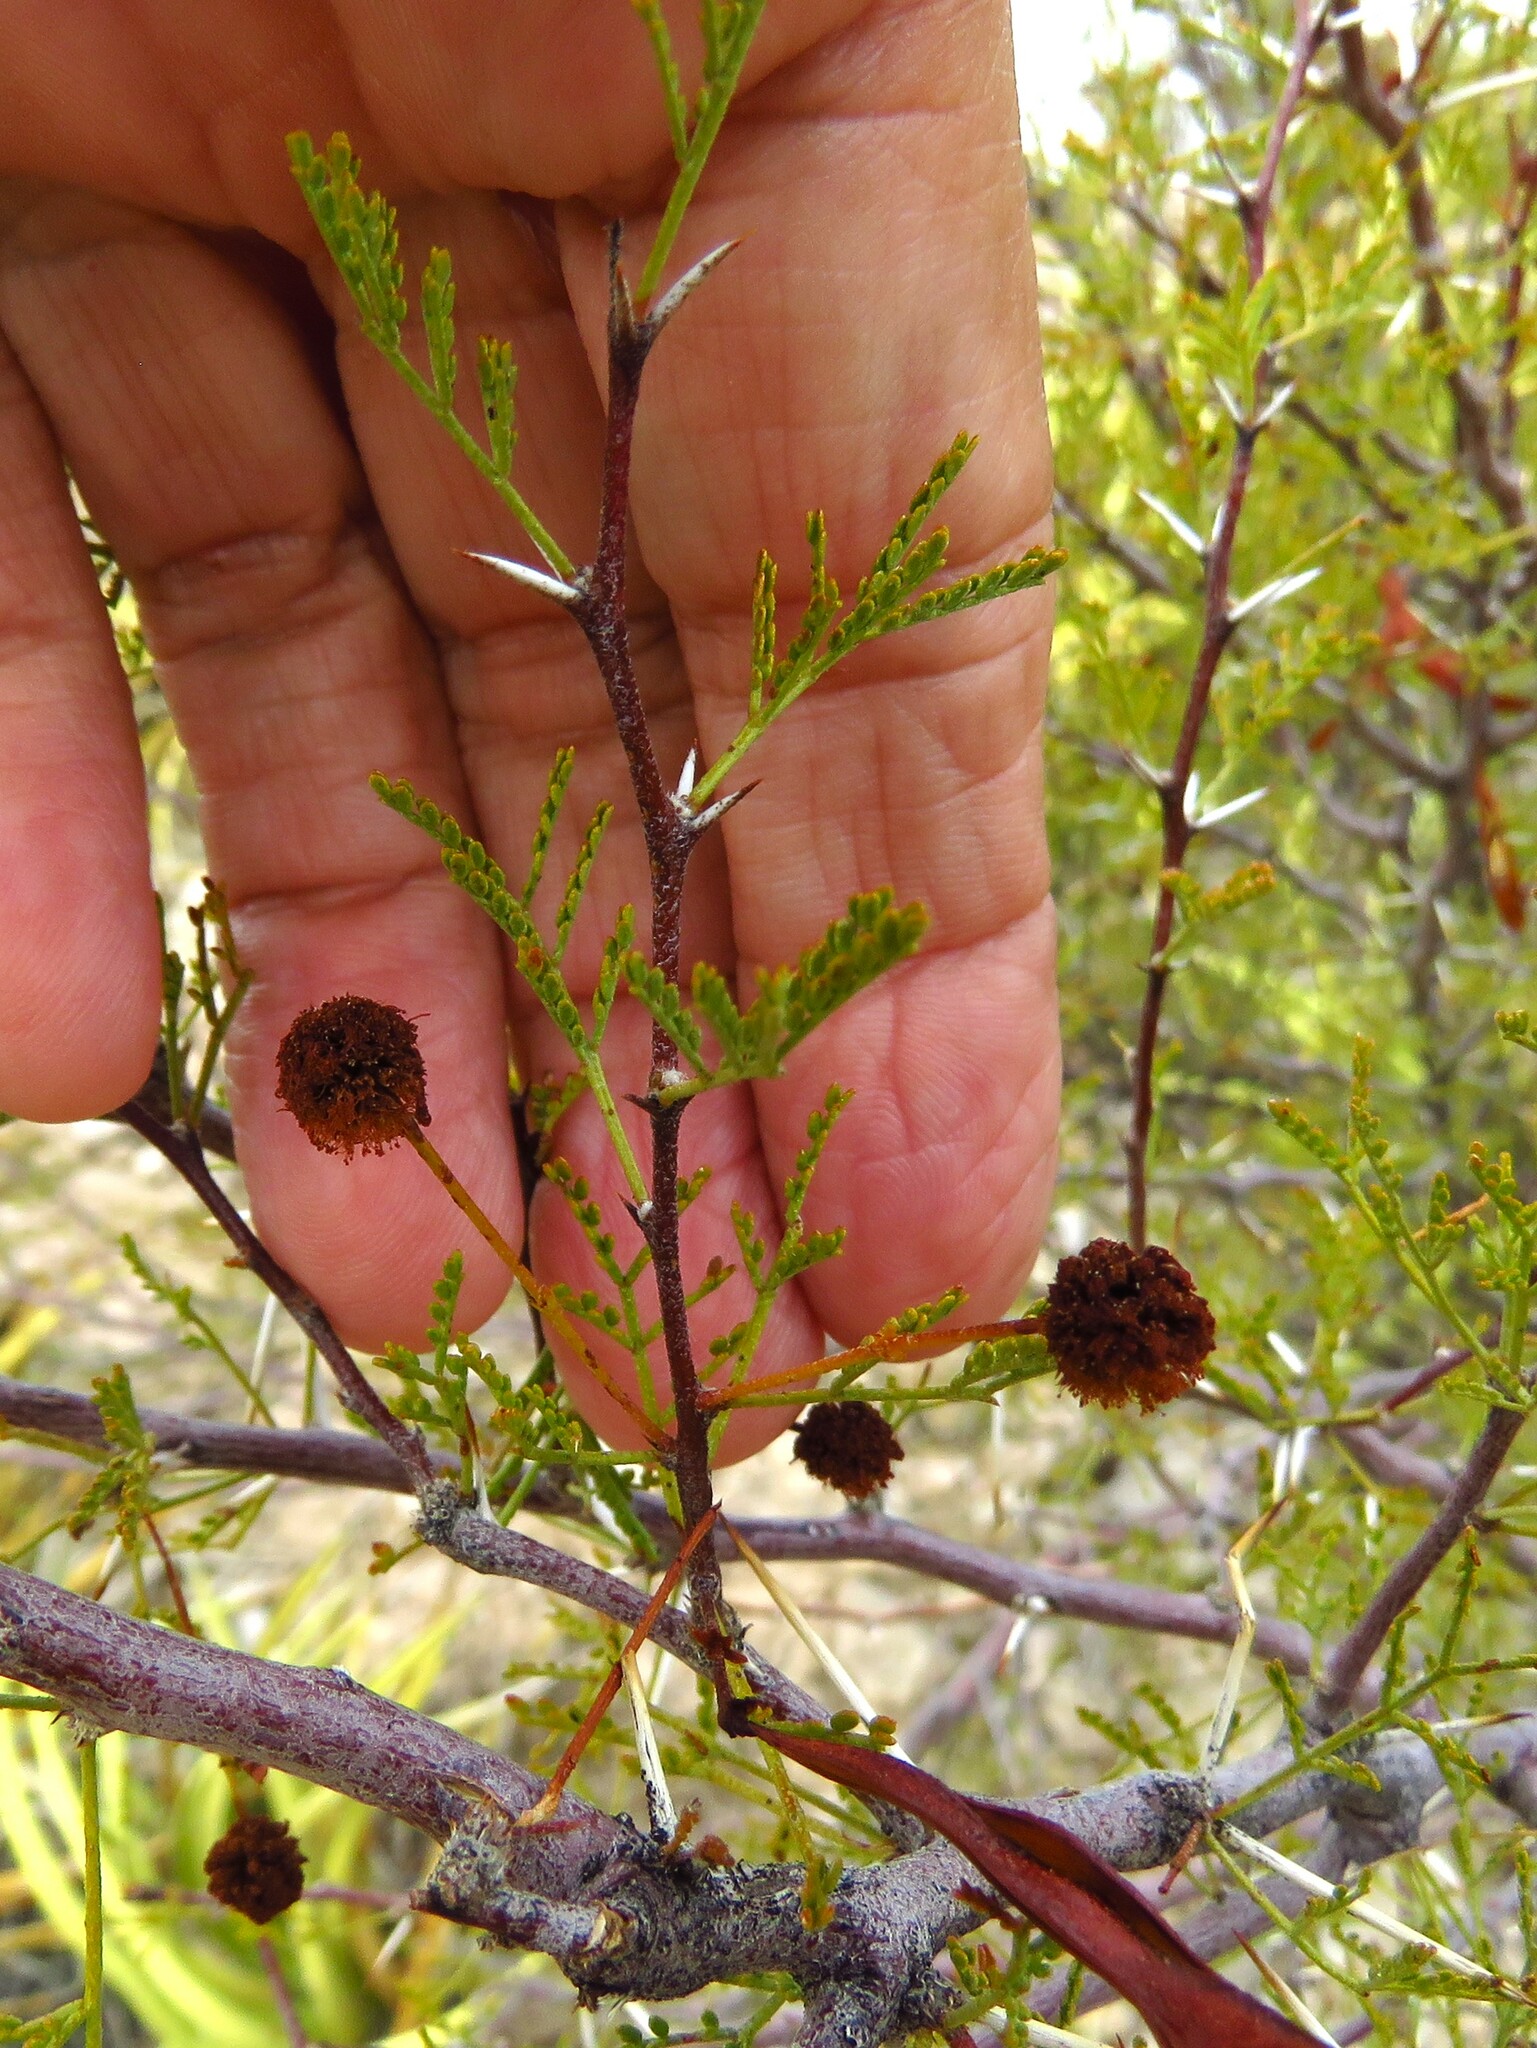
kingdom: Plantae
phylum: Tracheophyta
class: Magnoliopsida
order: Fabales
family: Fabaceae
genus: Vachellia
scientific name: Vachellia constricta
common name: Mescat acacia
